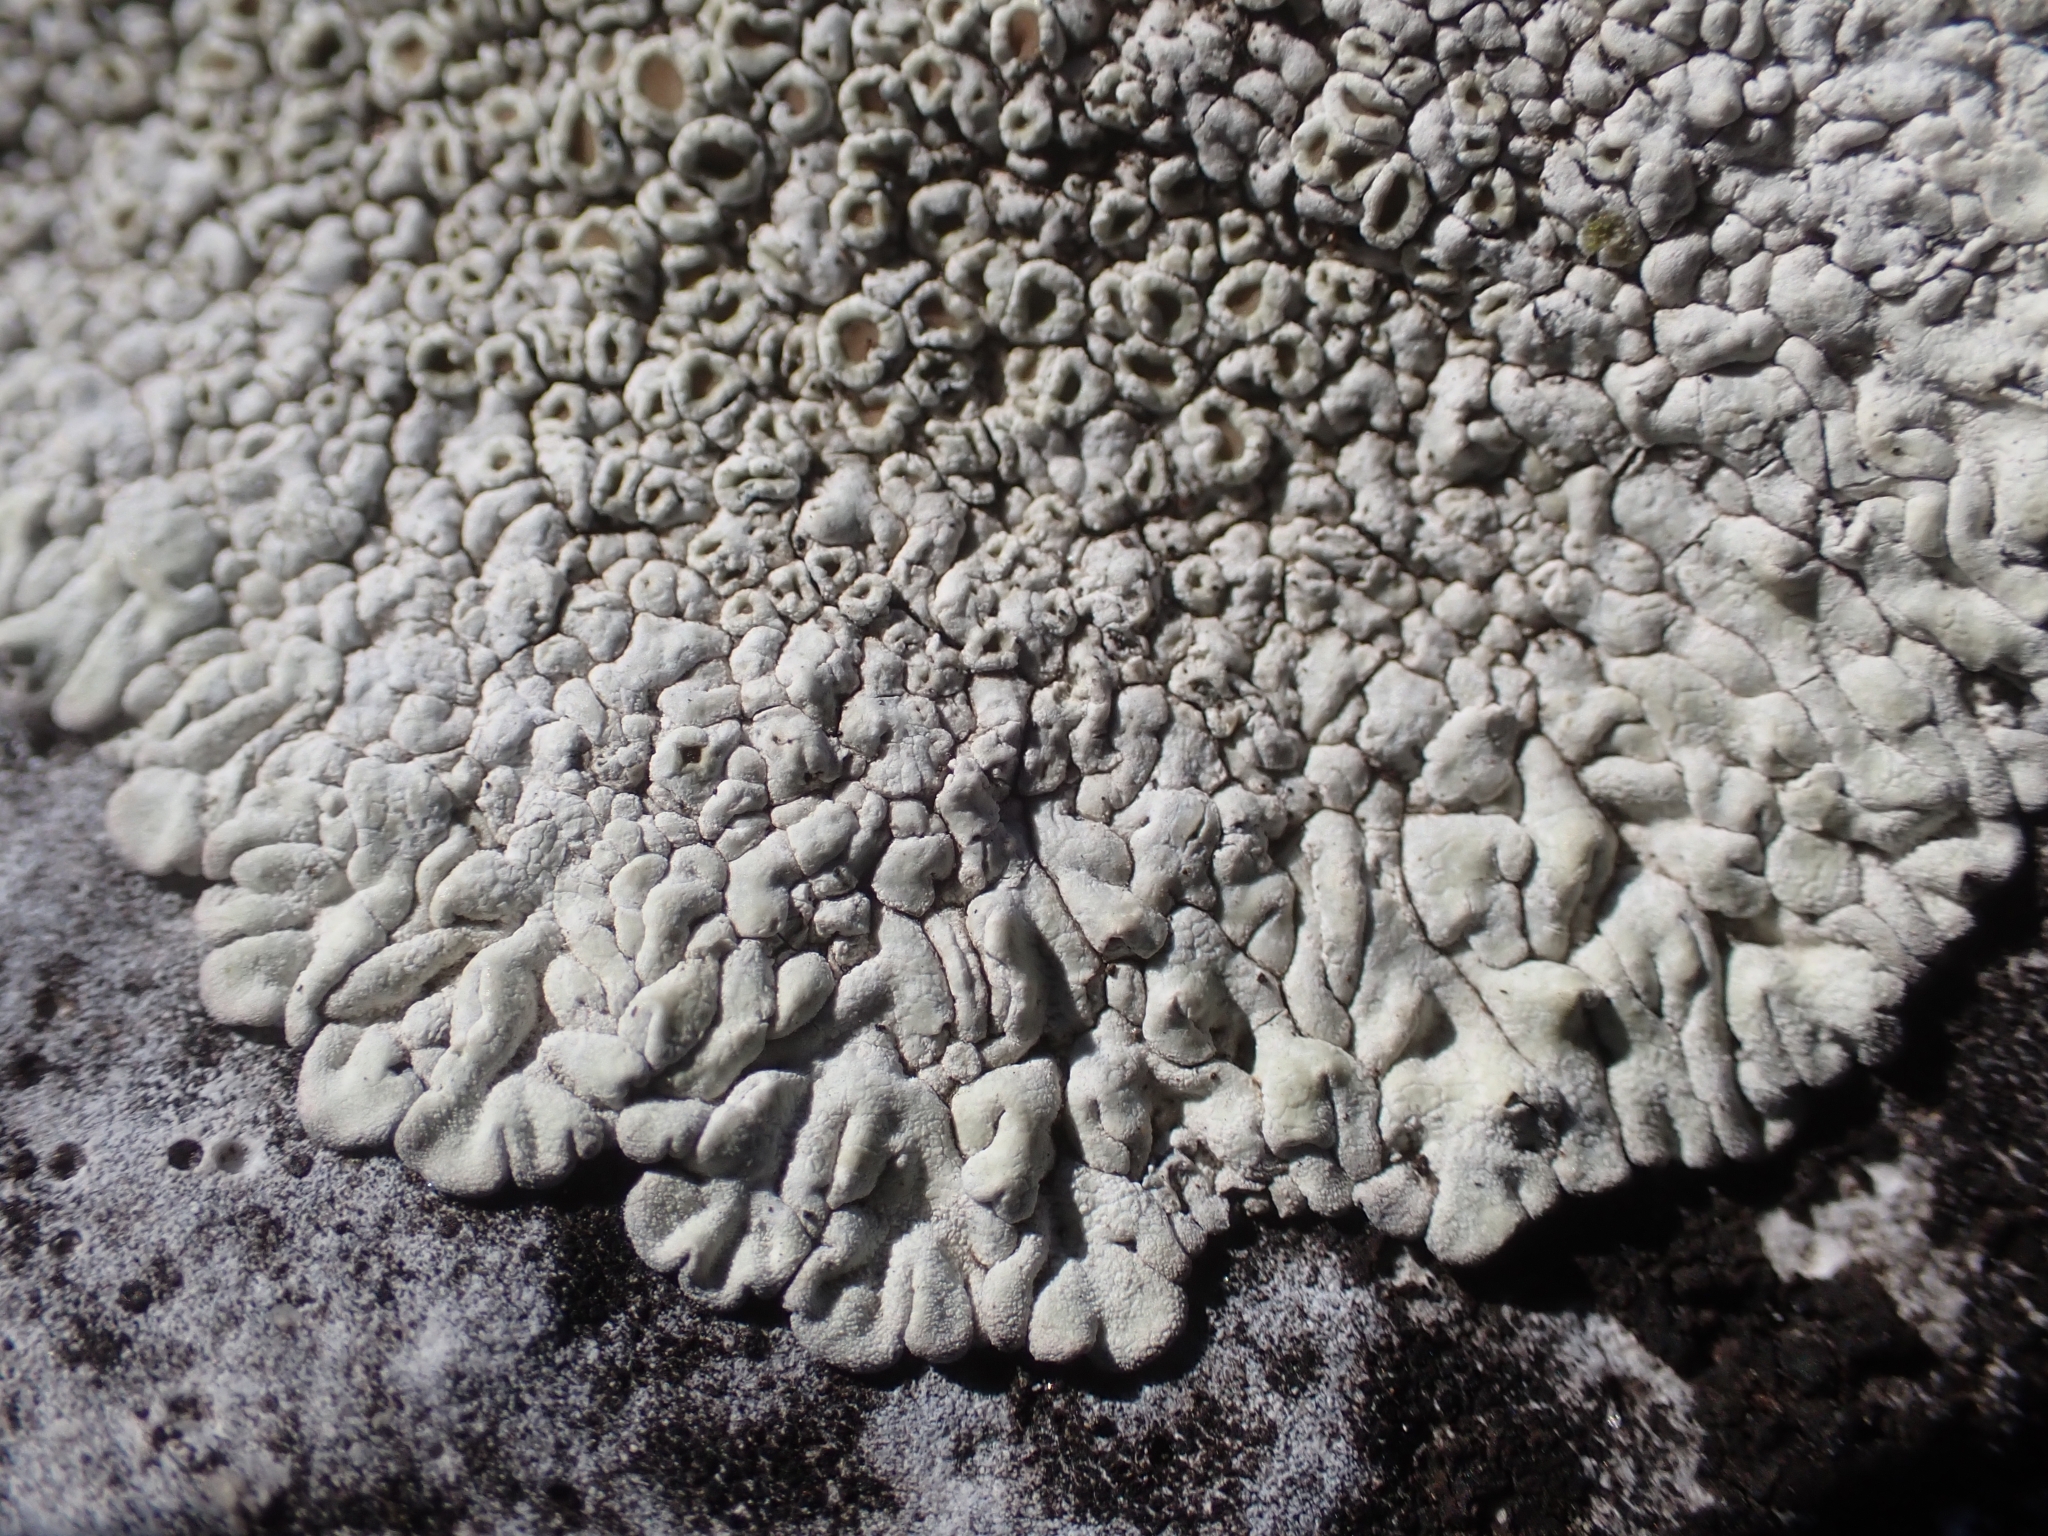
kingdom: Fungi
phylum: Ascomycota
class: Lecanoromycetes
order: Lecanorales
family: Lecanoraceae
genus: Protoparmeliopsis
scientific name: Protoparmeliopsis muralis
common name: Stonewall rim lichen
